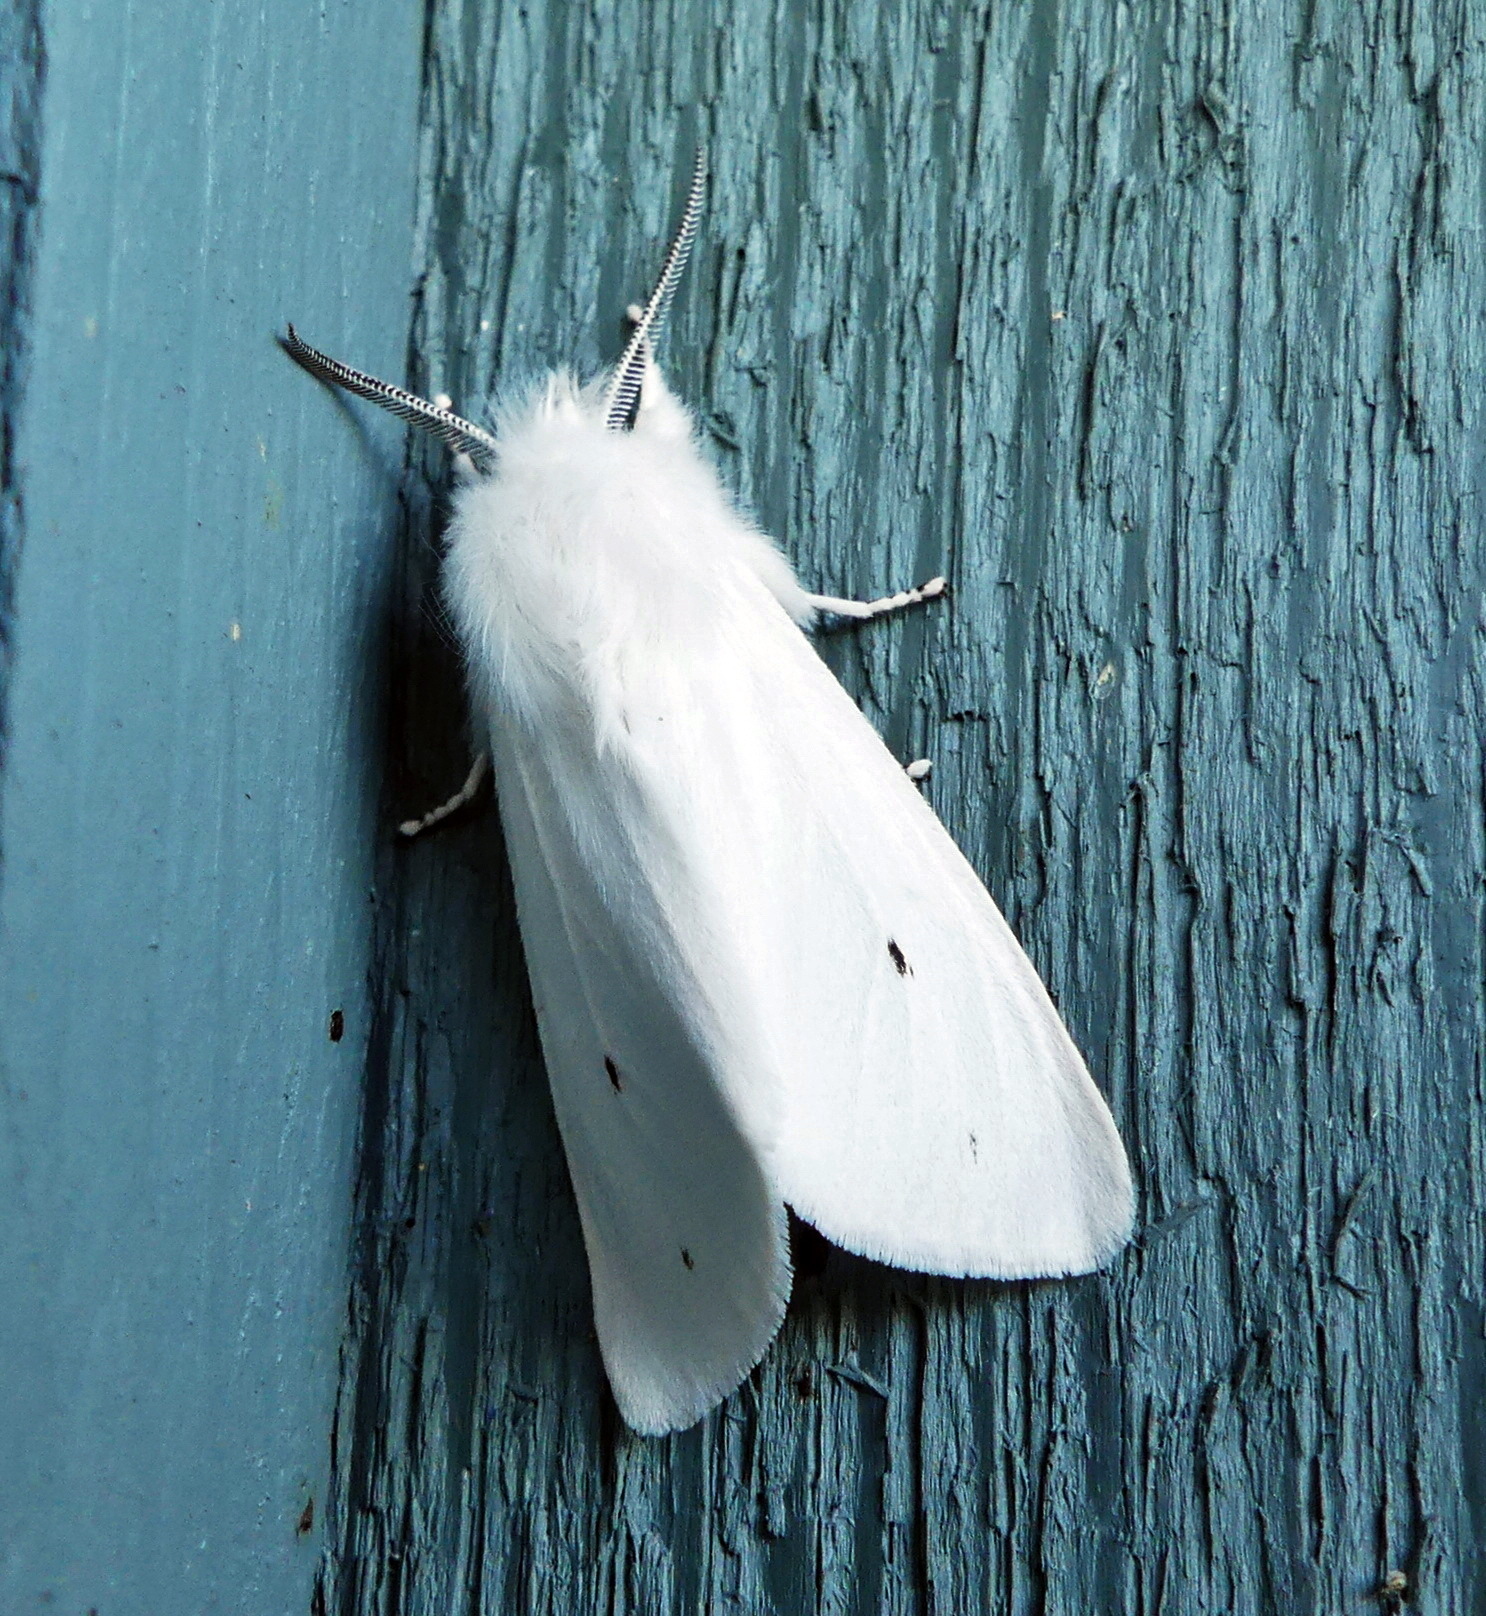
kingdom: Animalia
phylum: Arthropoda
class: Insecta
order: Lepidoptera
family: Erebidae
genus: Spilosoma
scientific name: Spilosoma virginica
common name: Virginia tiger moth
